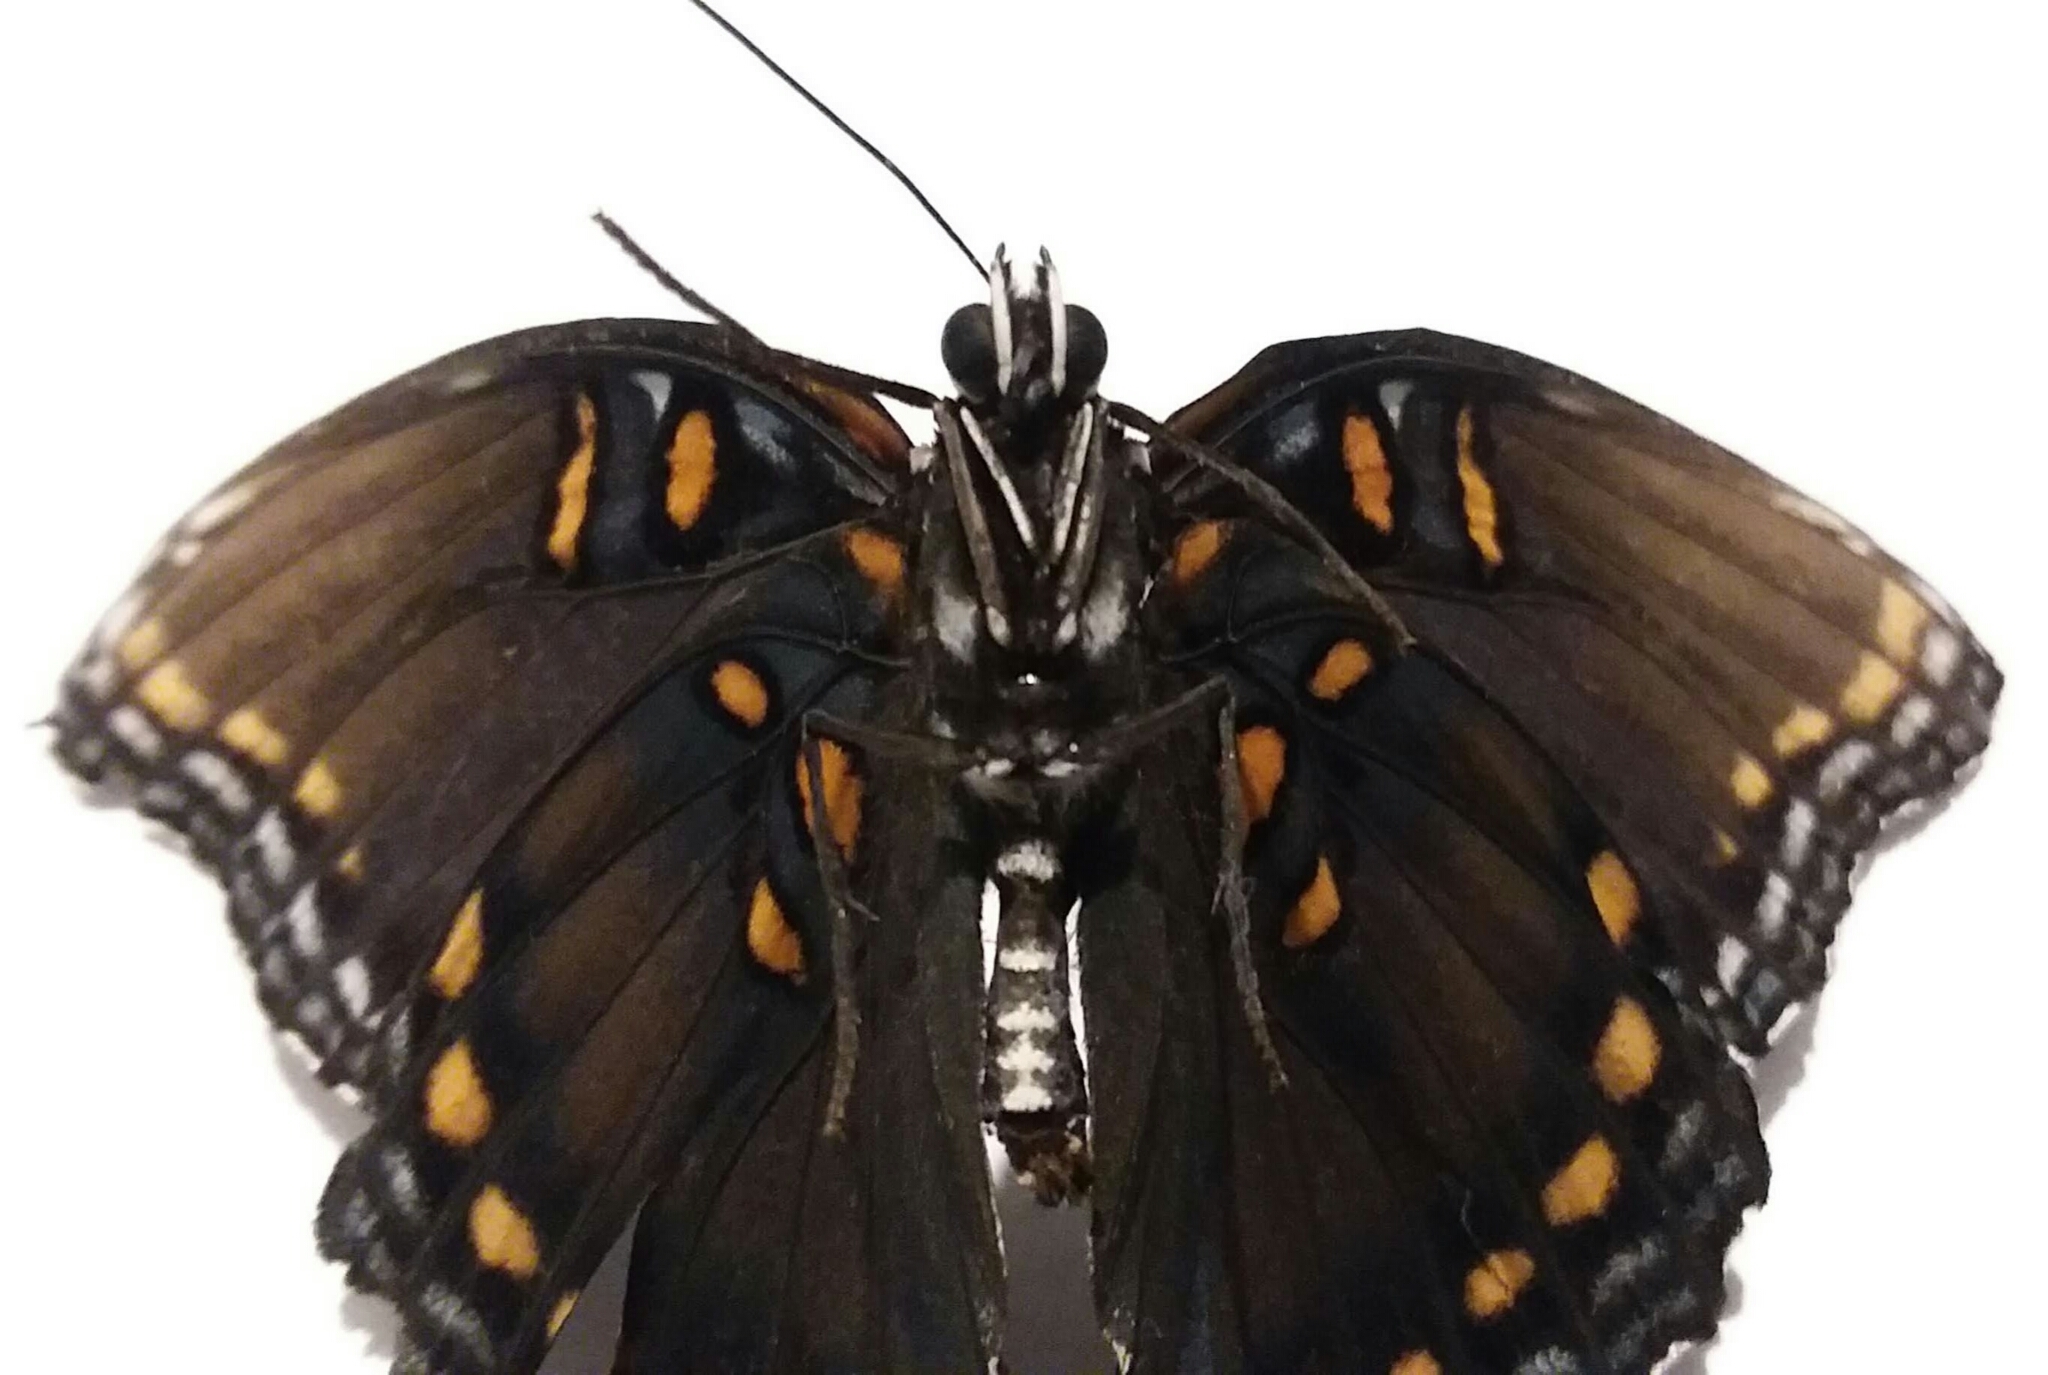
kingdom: Animalia
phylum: Arthropoda
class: Insecta
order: Lepidoptera
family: Nymphalidae
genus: Limenitis
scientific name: Limenitis astyanax
